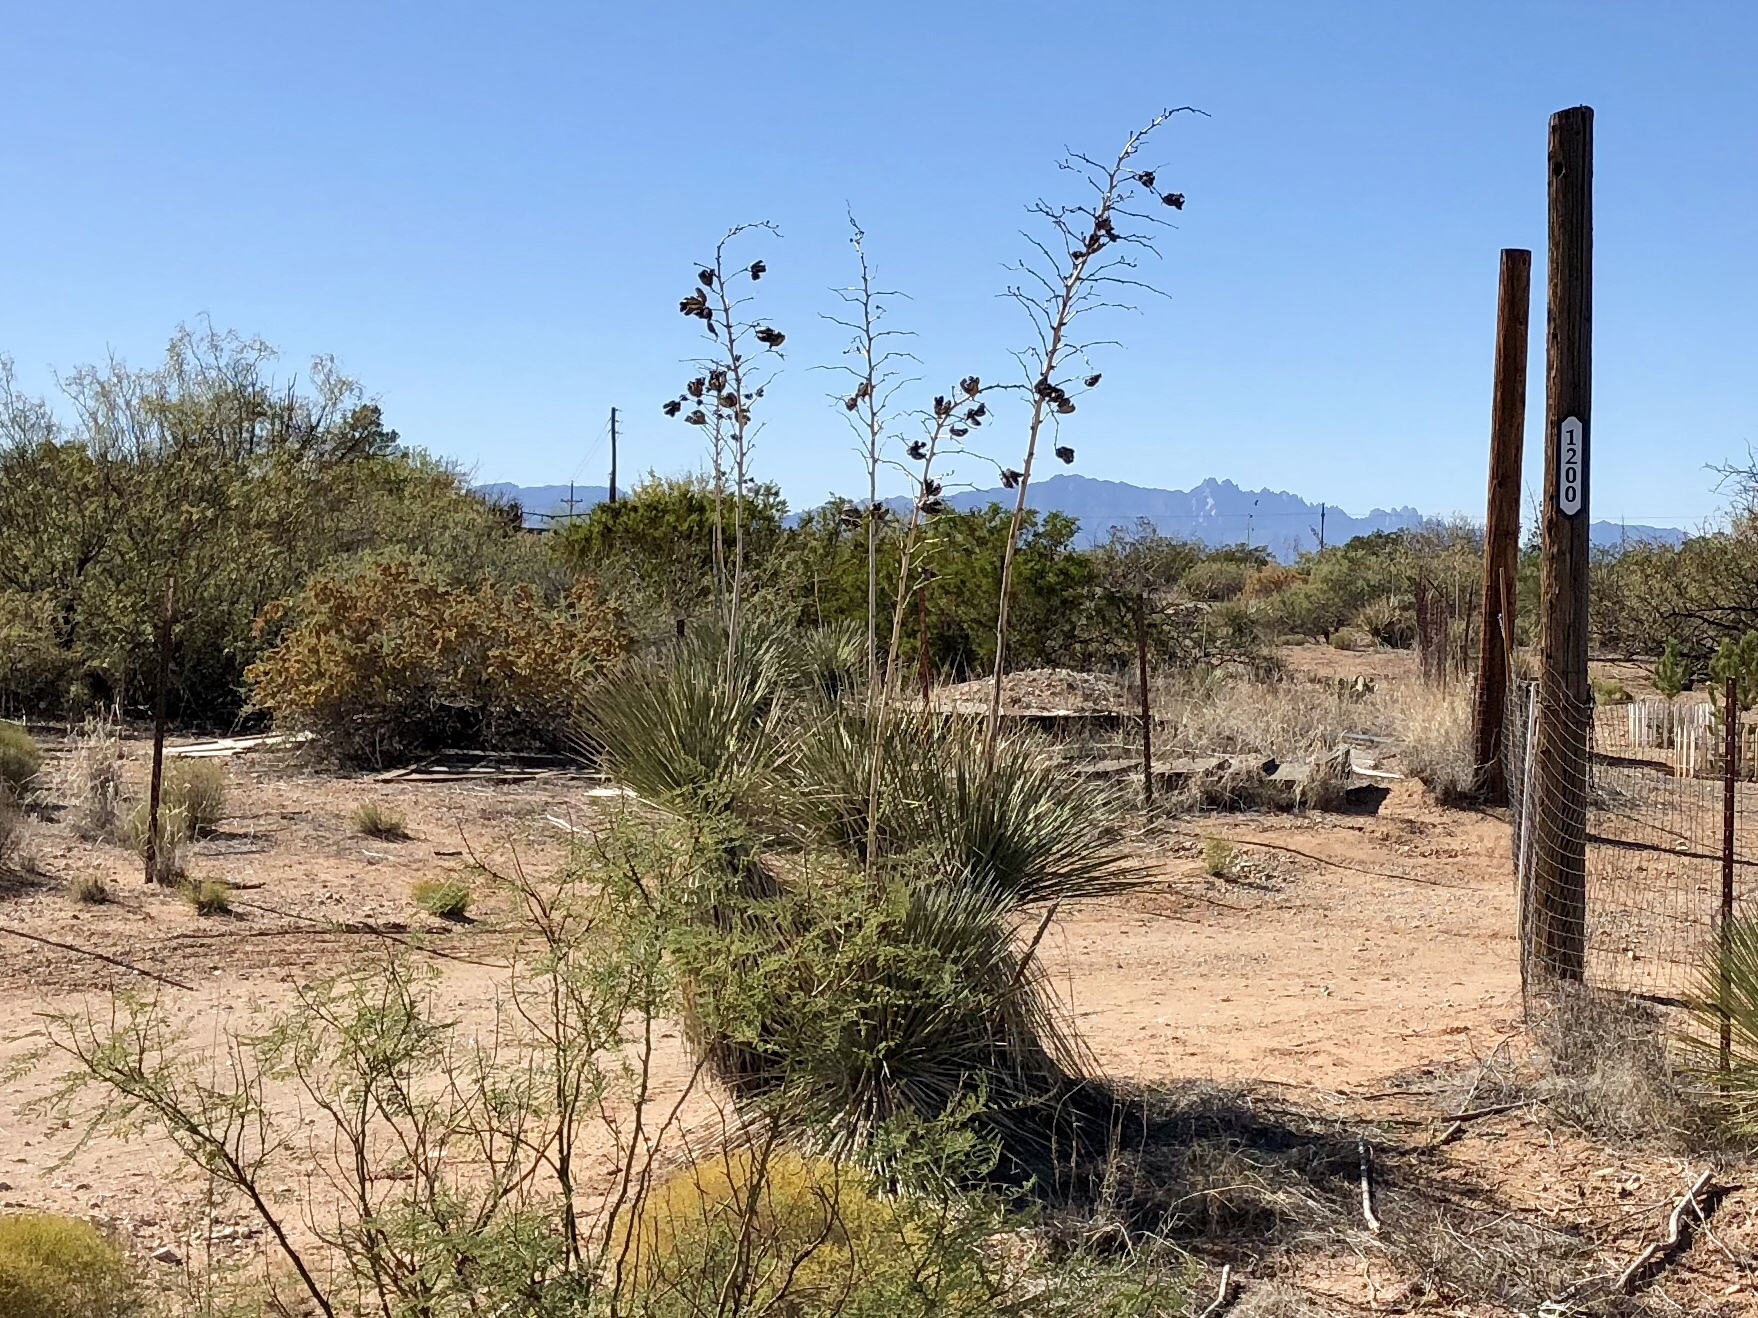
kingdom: Plantae
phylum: Tracheophyta
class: Liliopsida
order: Asparagales
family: Asparagaceae
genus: Yucca
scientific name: Yucca elata
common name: Palmella
